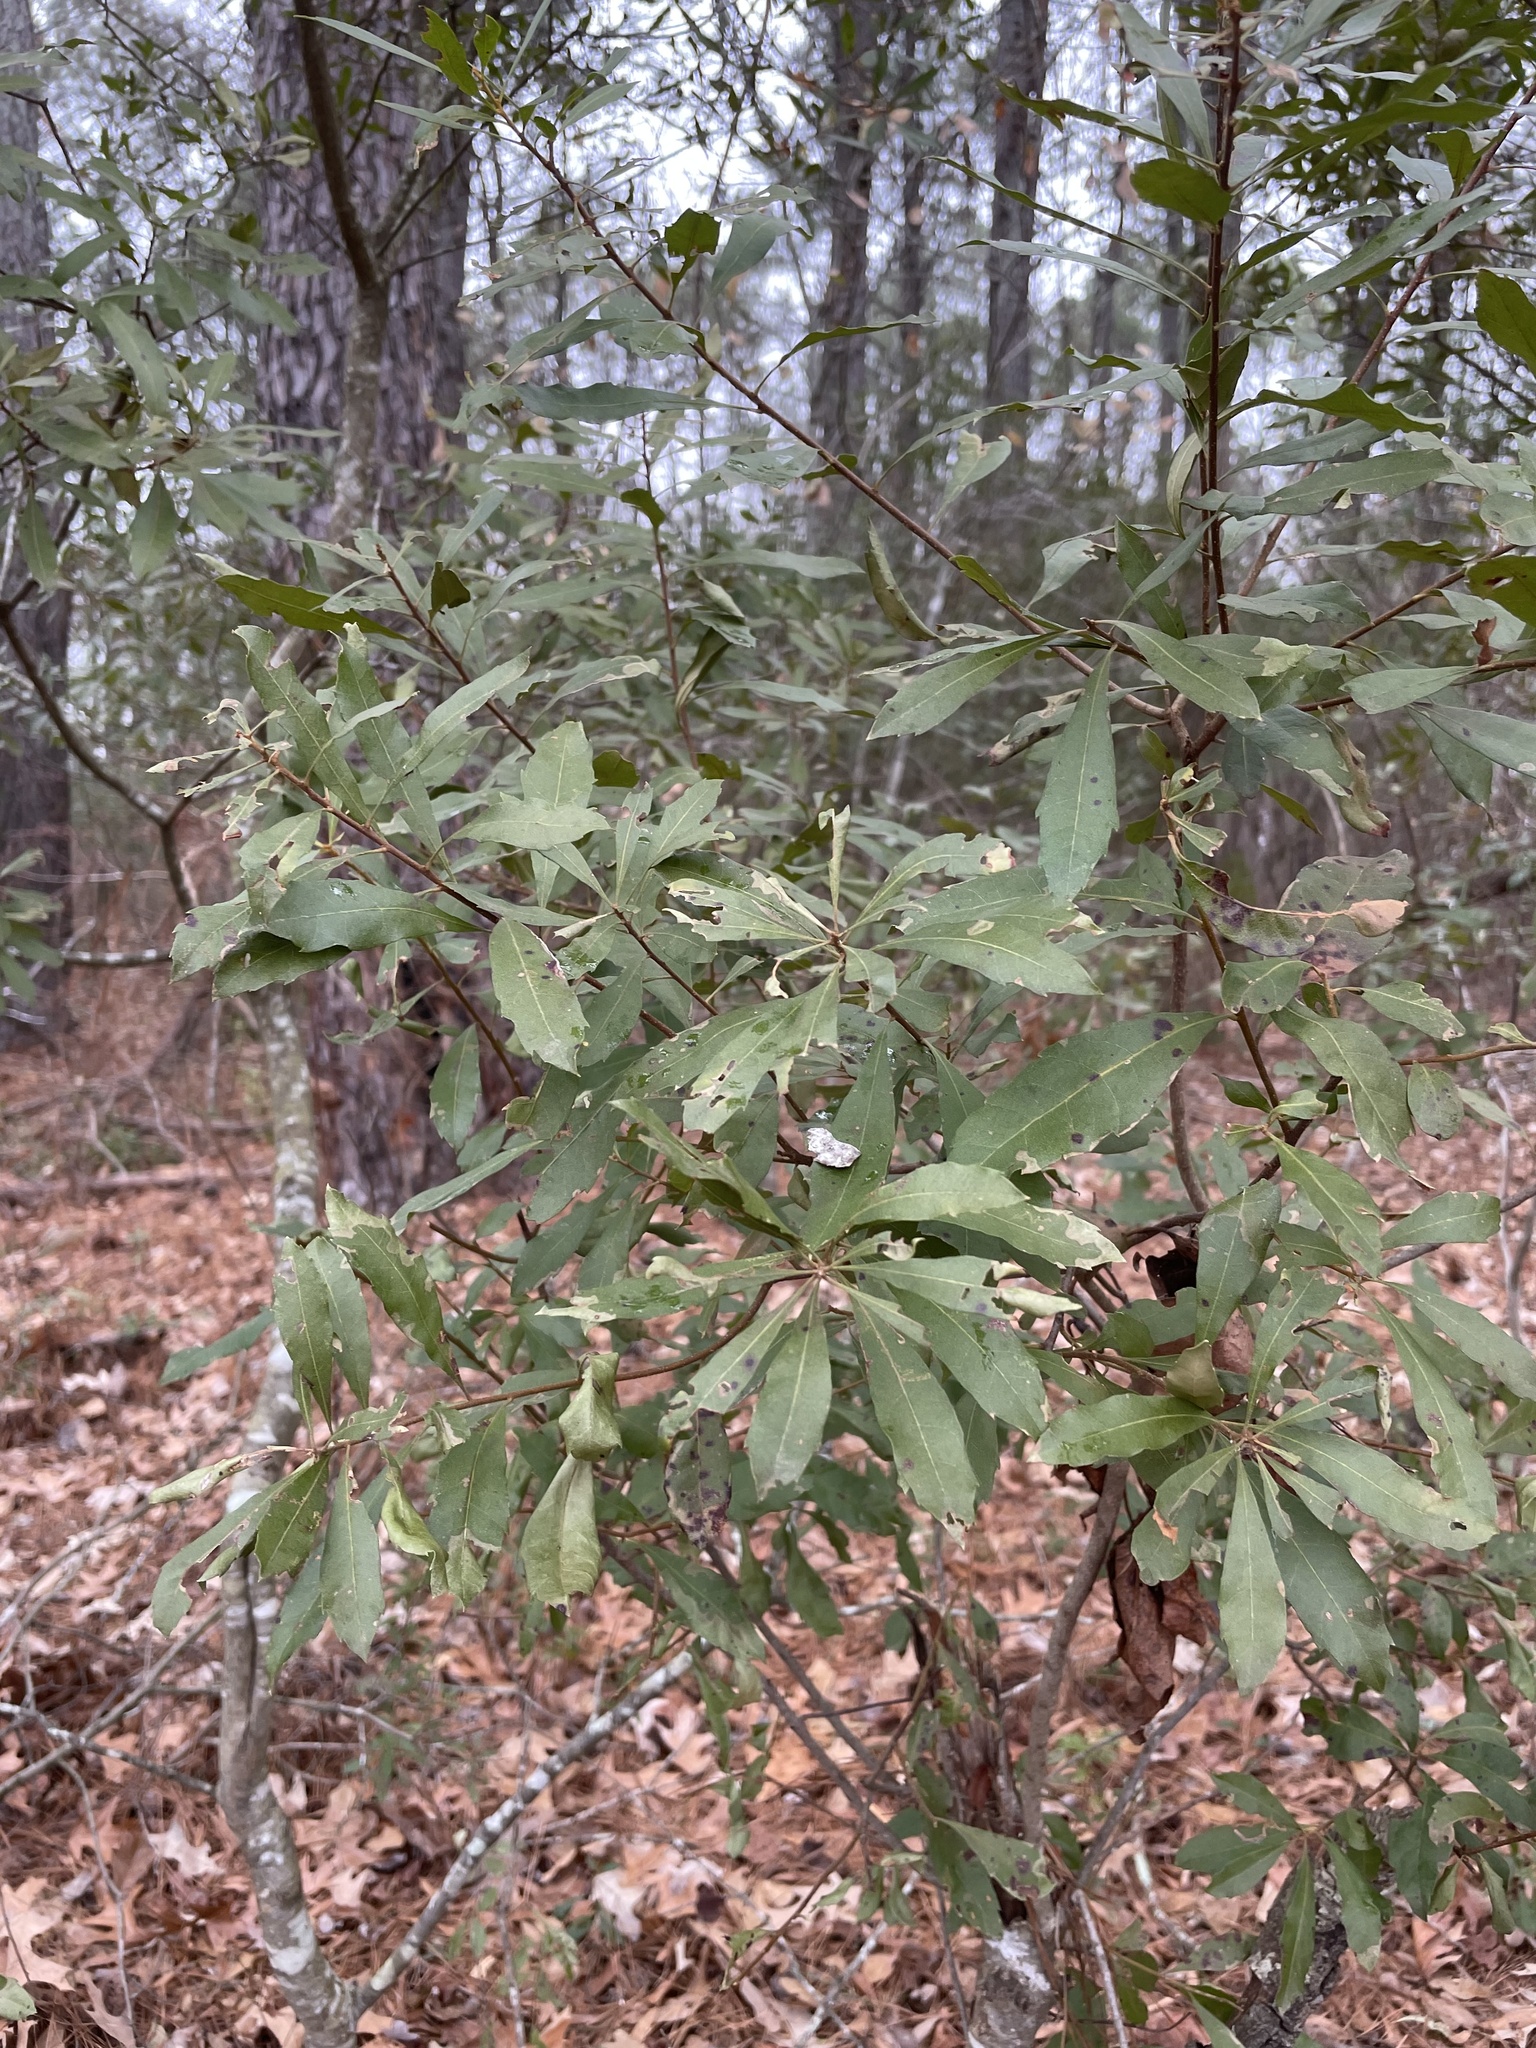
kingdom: Plantae
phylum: Tracheophyta
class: Magnoliopsida
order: Fagales
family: Myricaceae
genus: Morella
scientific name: Morella cerifera
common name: Wax myrtle
